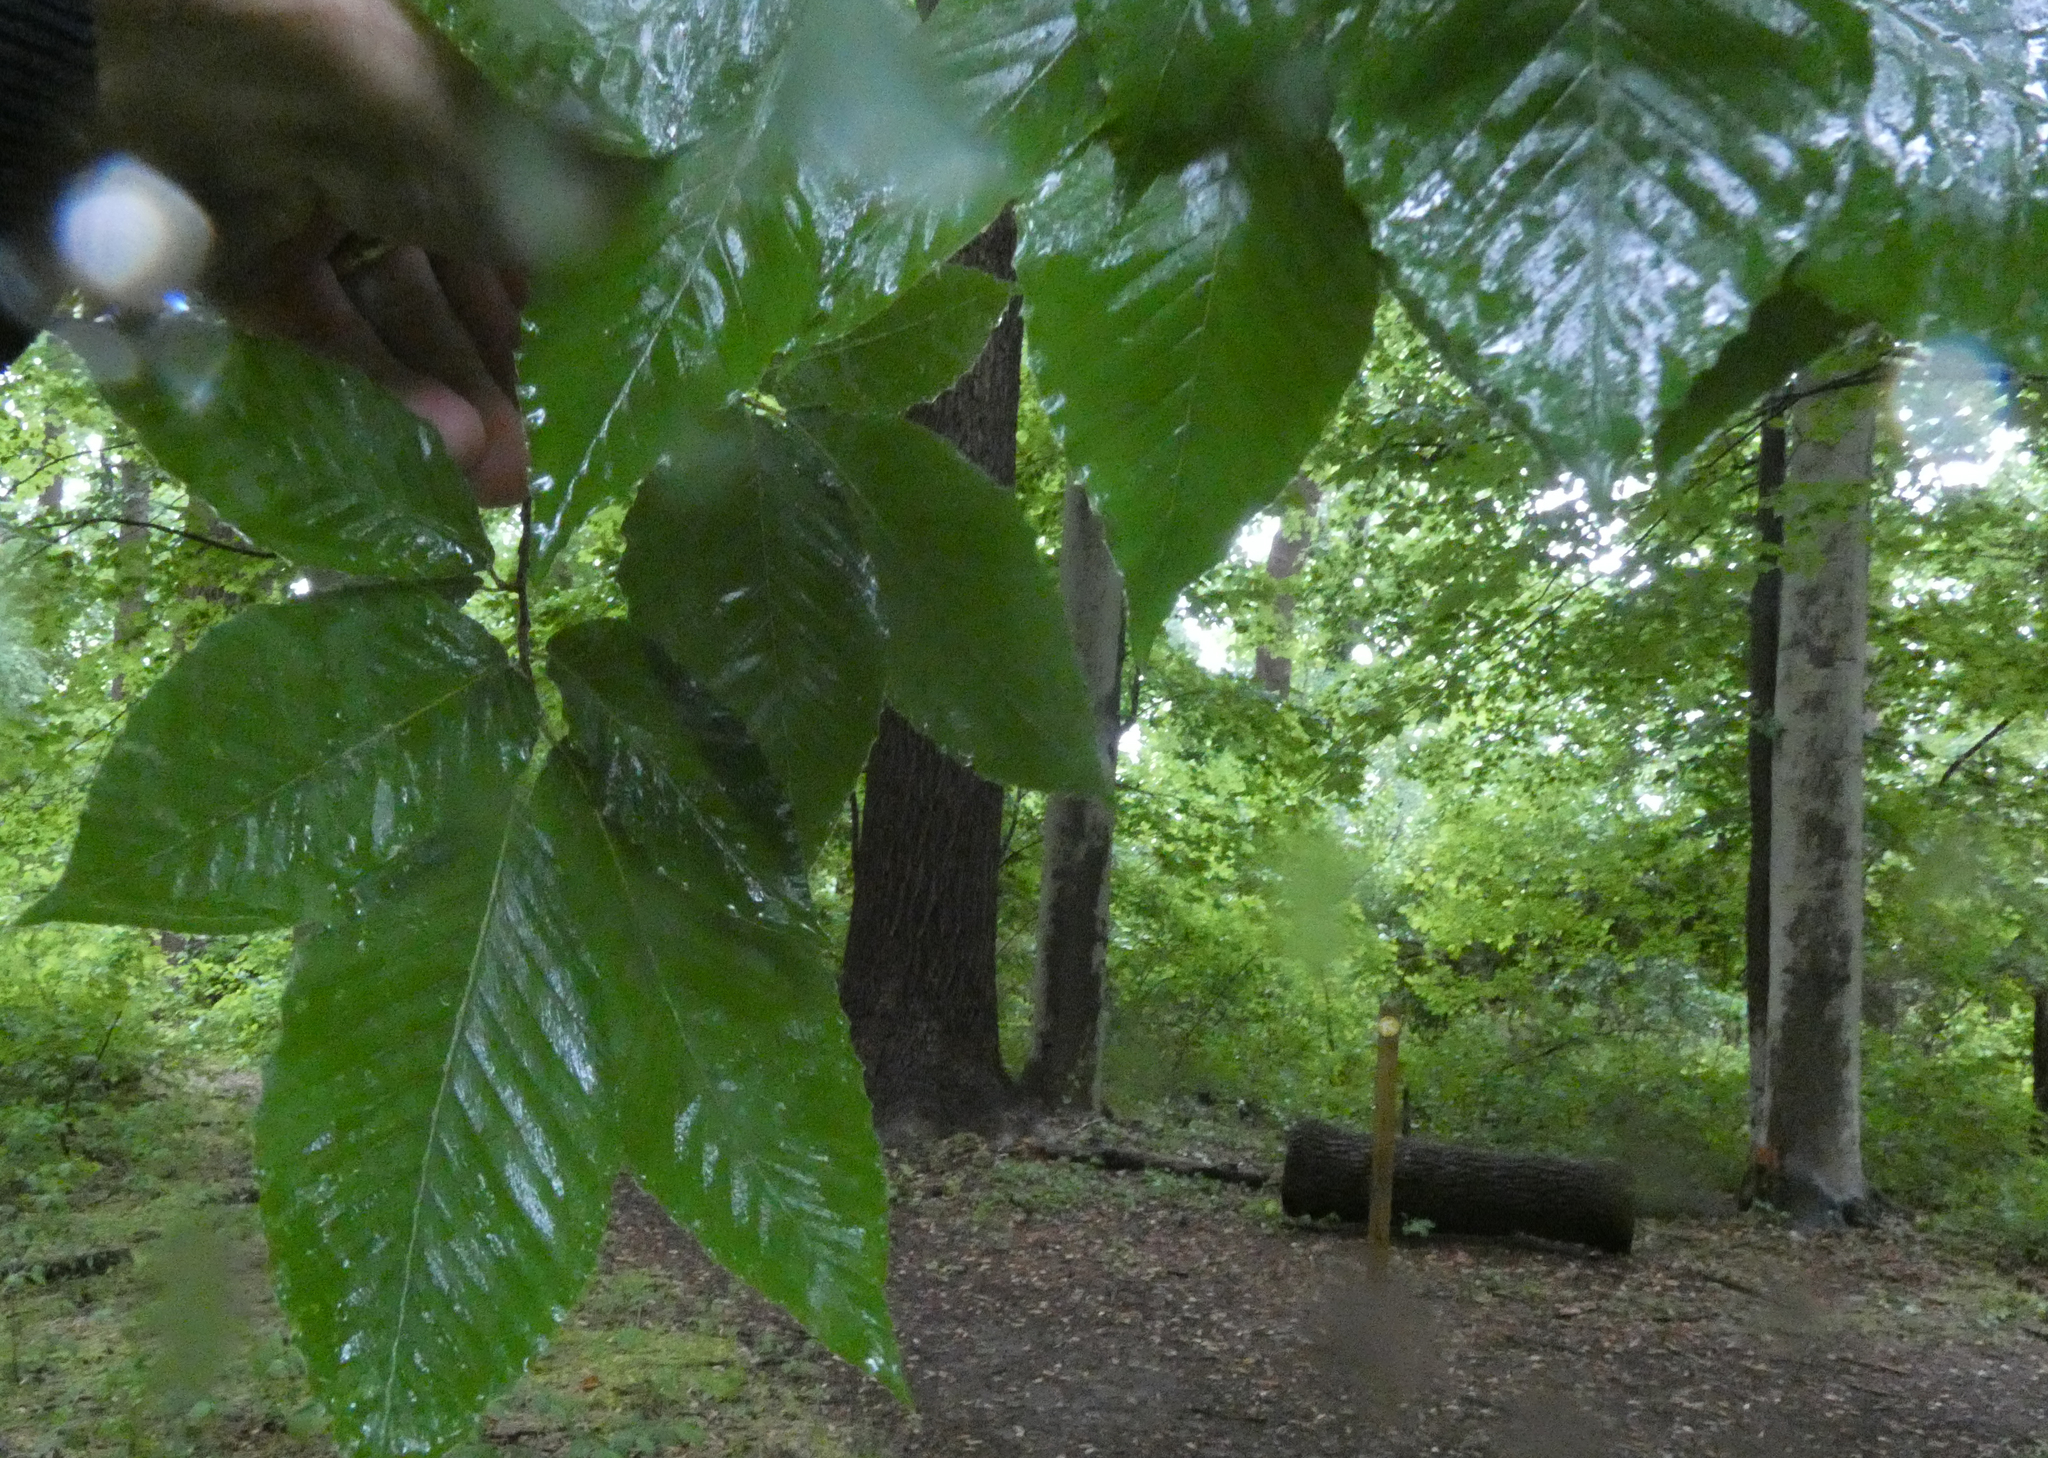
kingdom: Plantae
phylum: Tracheophyta
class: Magnoliopsida
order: Fagales
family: Fagaceae
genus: Fagus
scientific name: Fagus grandifolia
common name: American beech
